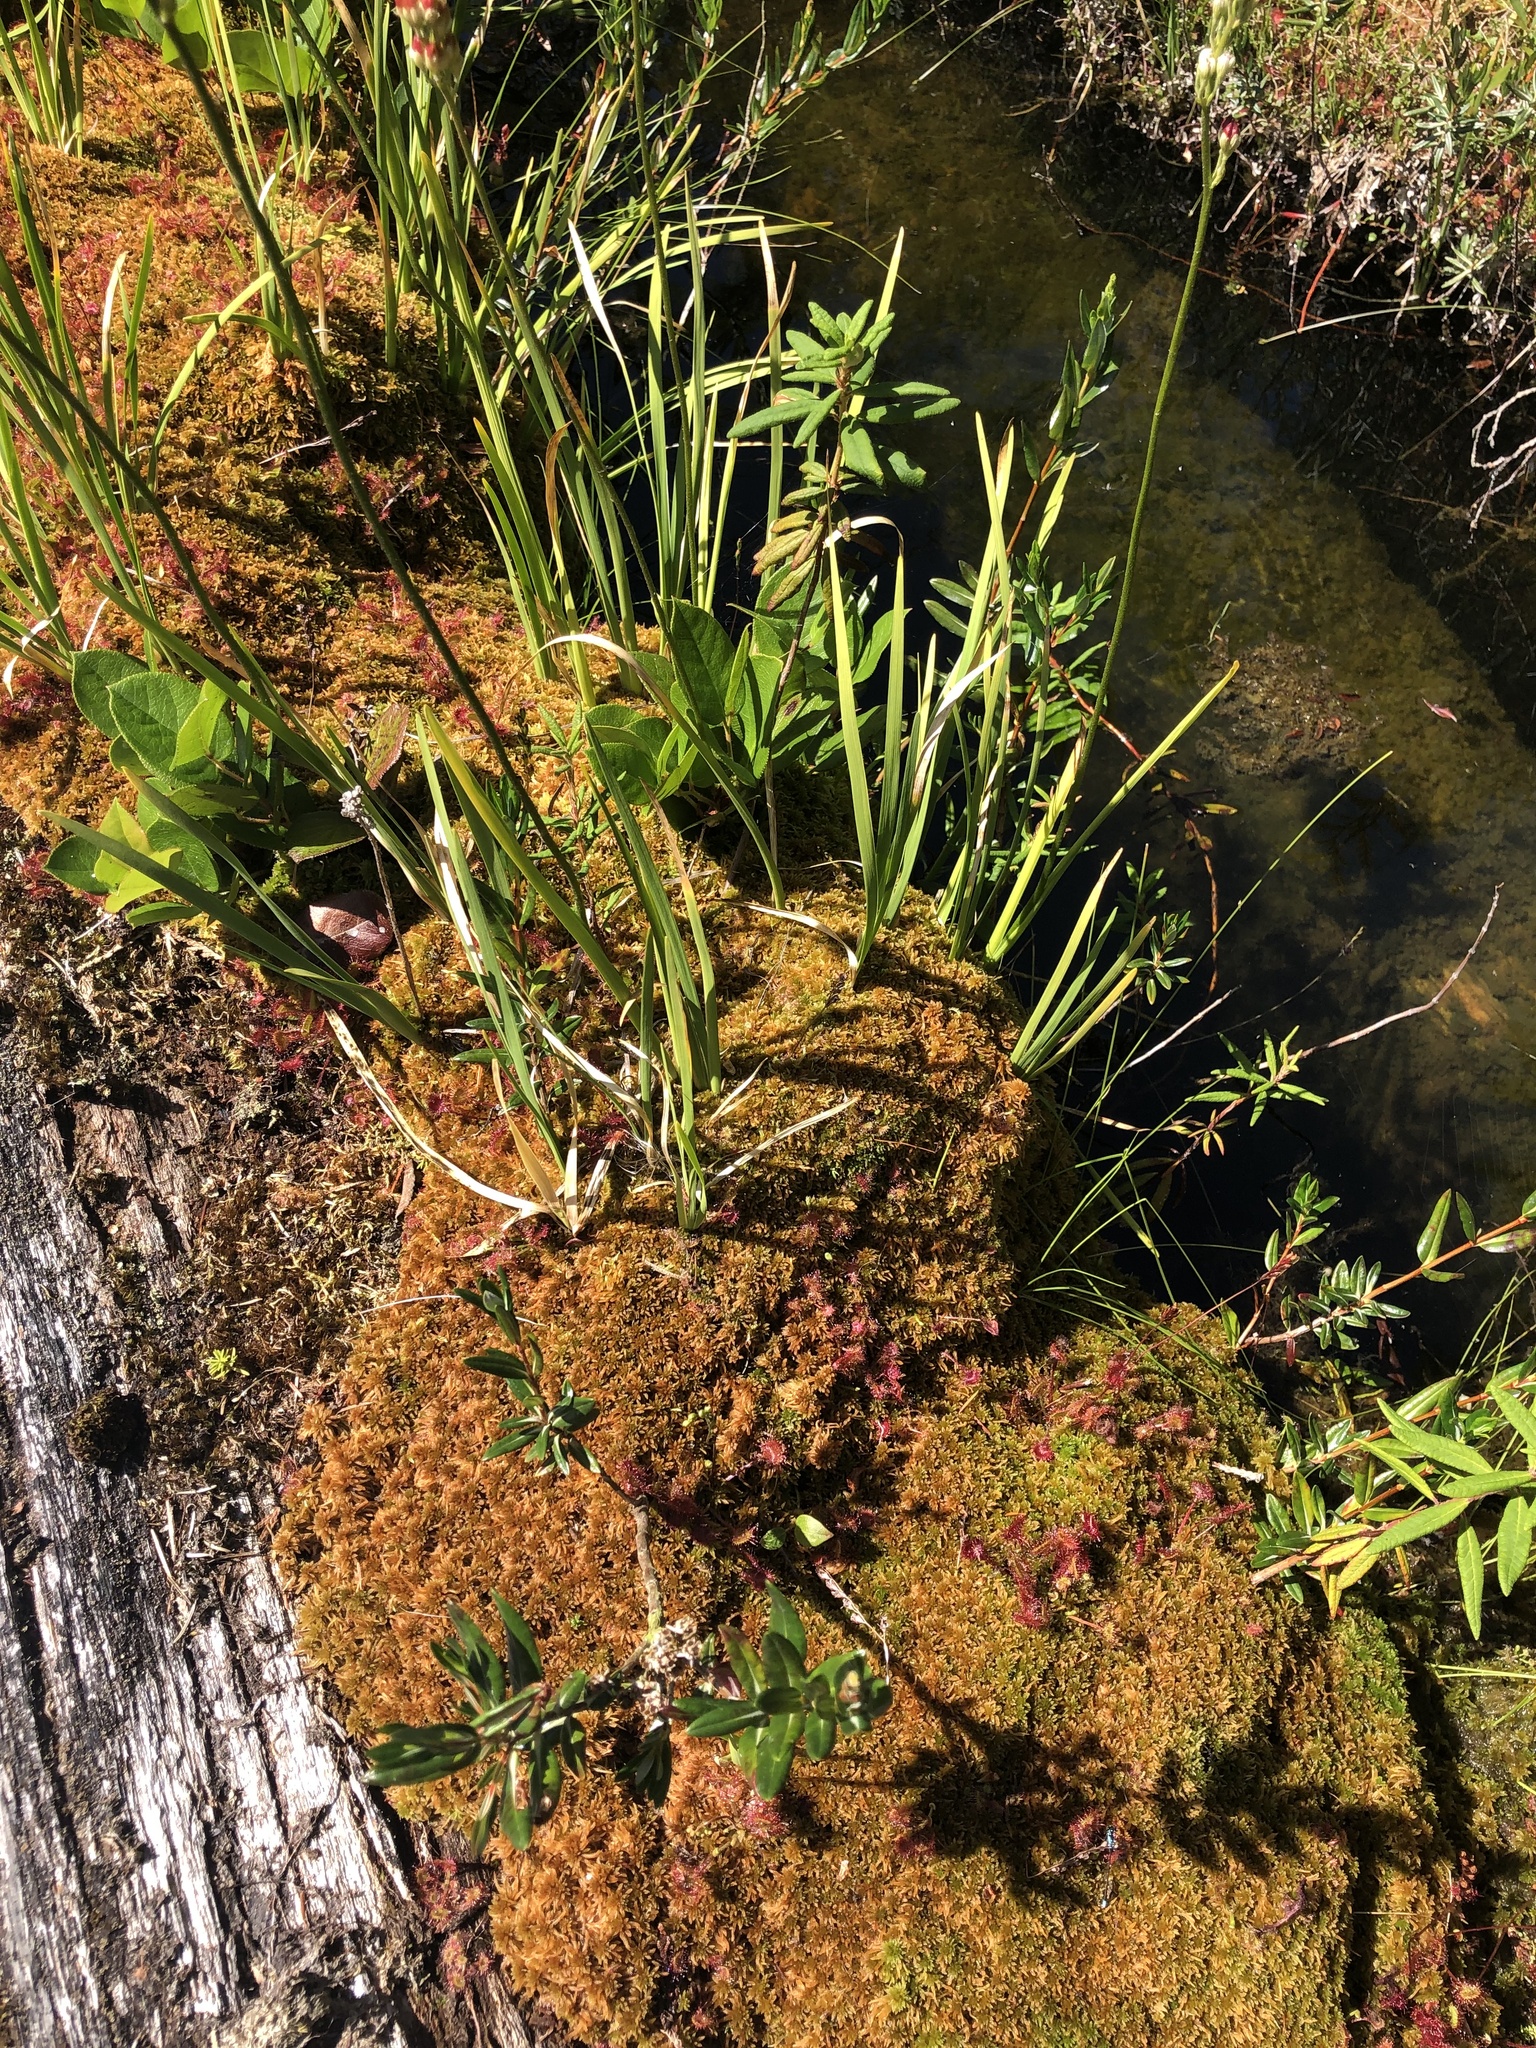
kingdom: Plantae
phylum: Tracheophyta
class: Magnoliopsida
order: Ericales
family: Ericaceae
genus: Kalmia
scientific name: Kalmia microphylla
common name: Alpine bog laurel
